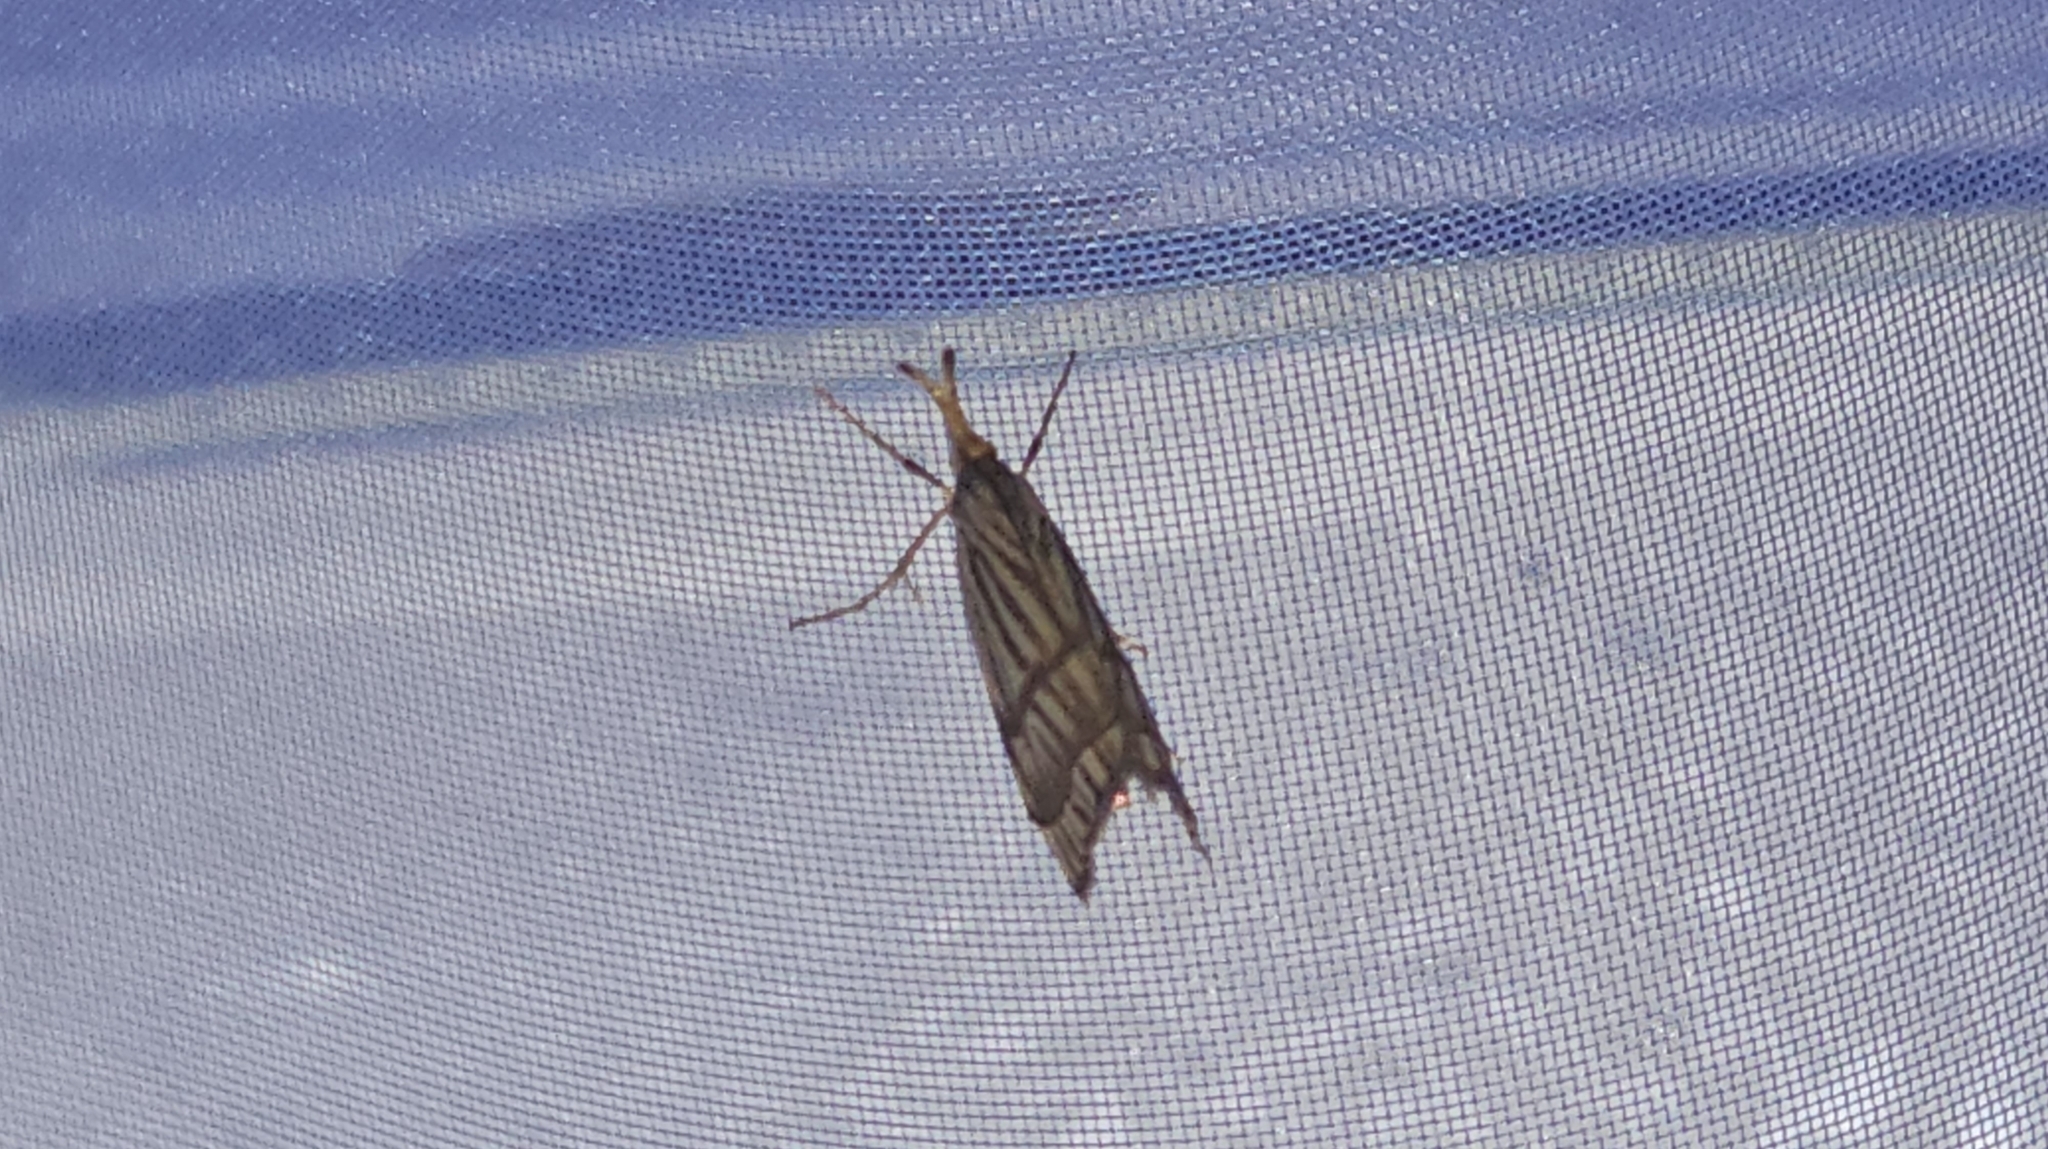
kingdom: Animalia
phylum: Arthropoda
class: Insecta
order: Lepidoptera
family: Crambidae
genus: Chrysocrambus
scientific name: Chrysocrambus linetella
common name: Orange-bar grass-veneer
